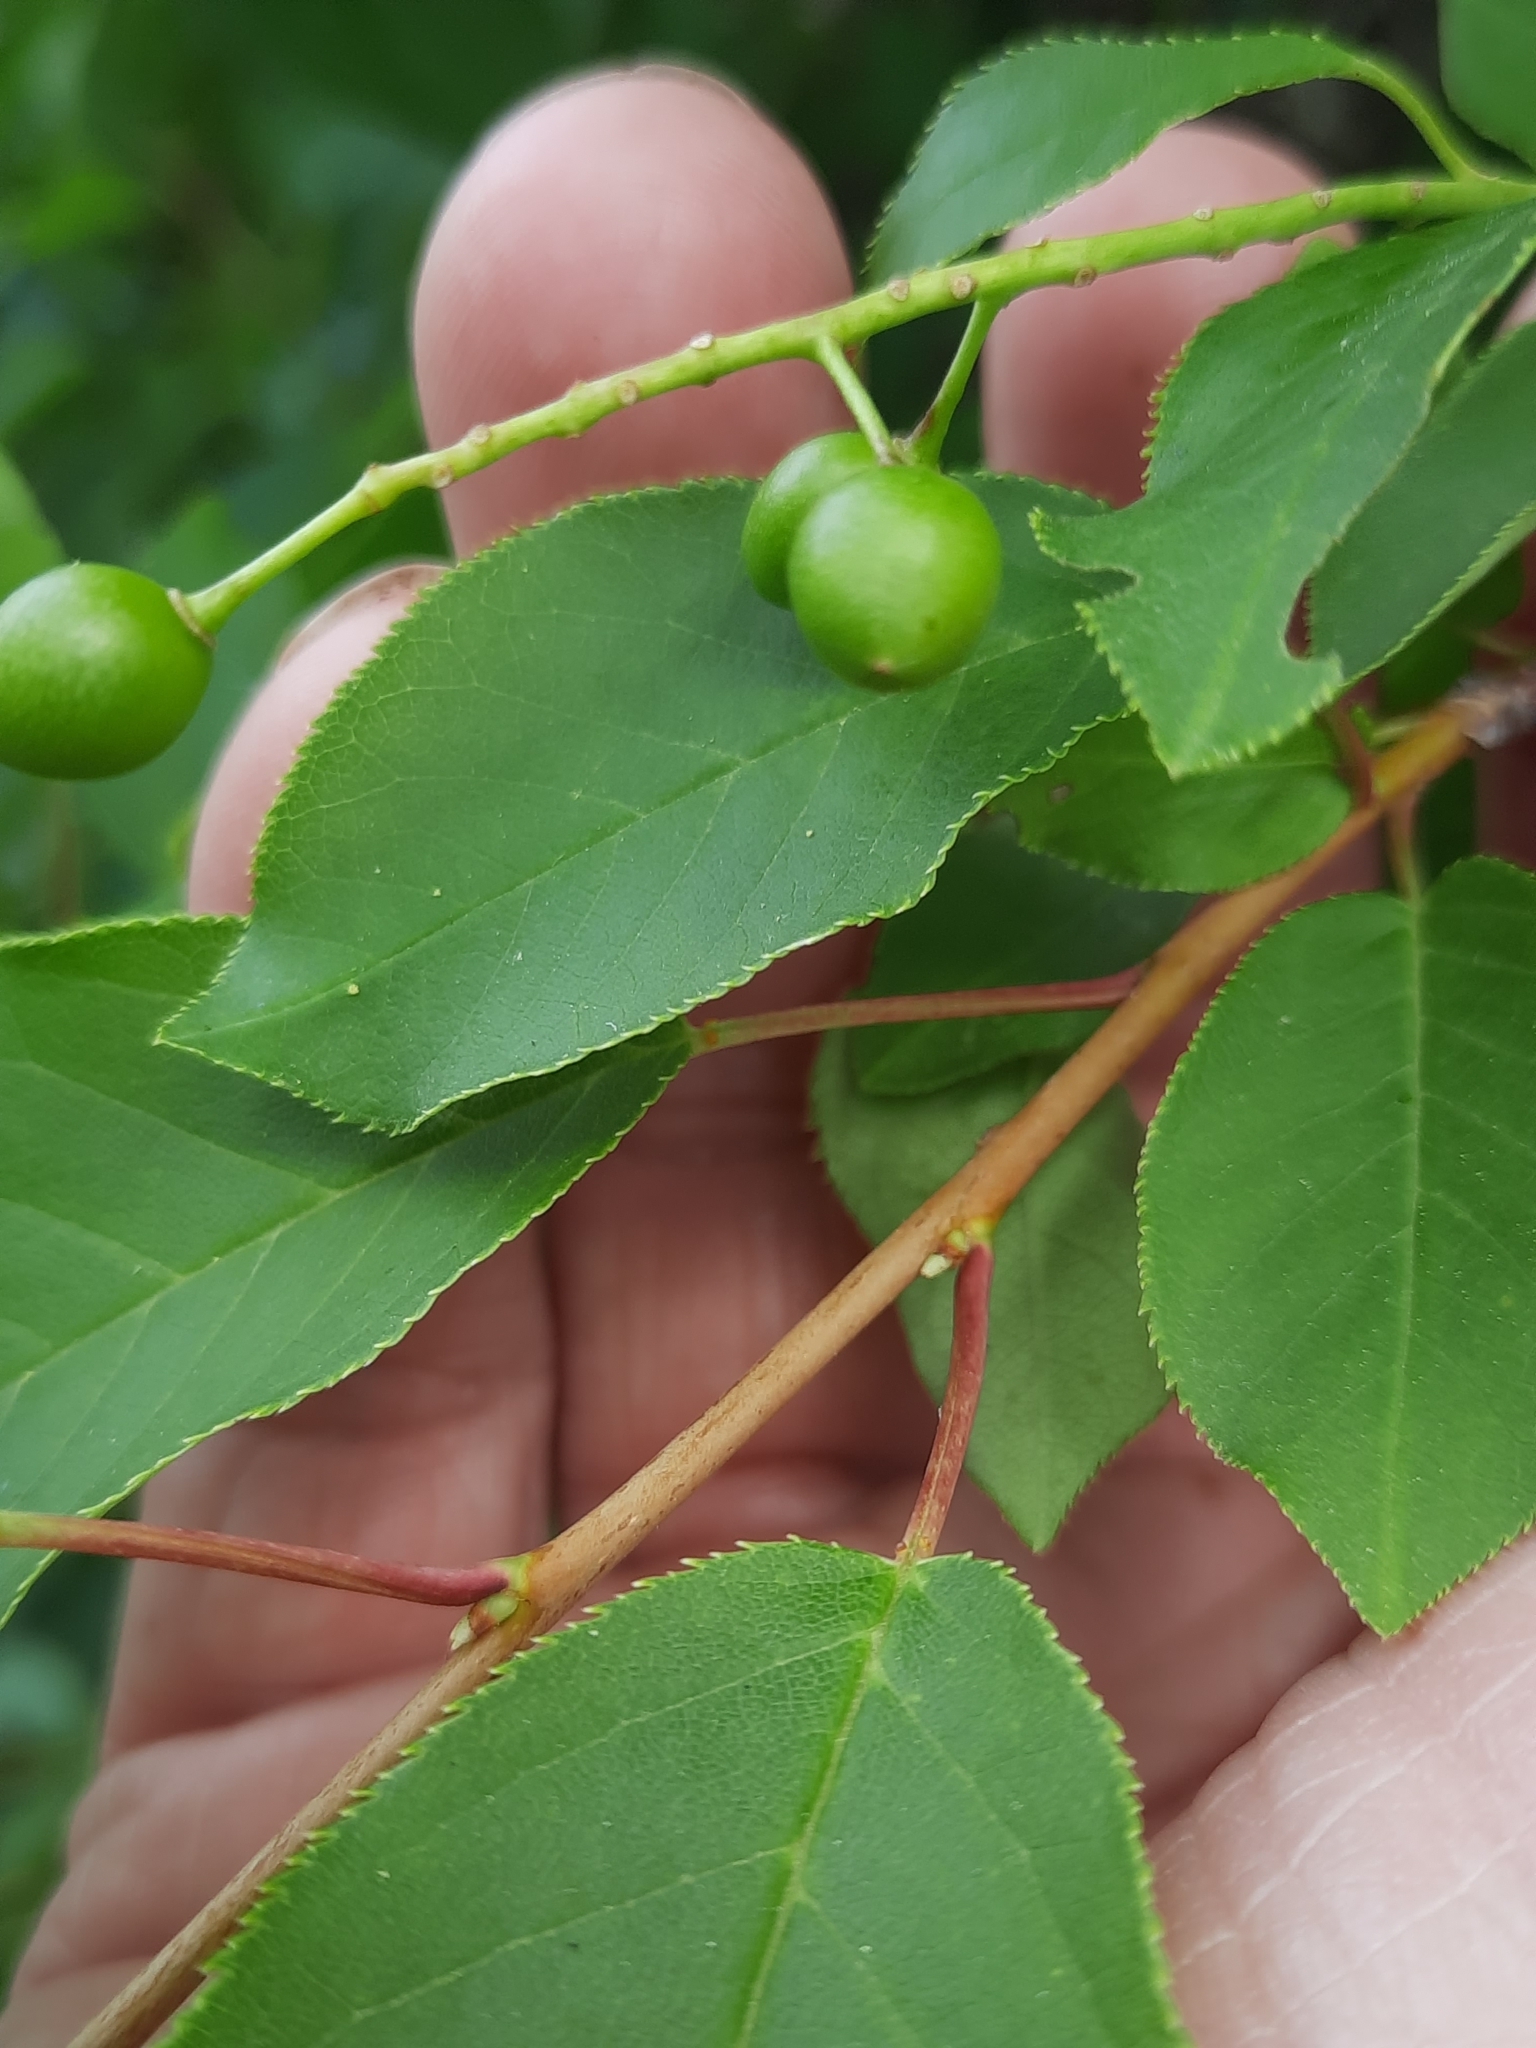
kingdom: Plantae
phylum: Tracheophyta
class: Magnoliopsida
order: Rosales
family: Rosaceae
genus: Prunus
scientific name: Prunus virginiana
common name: Chokecherry
